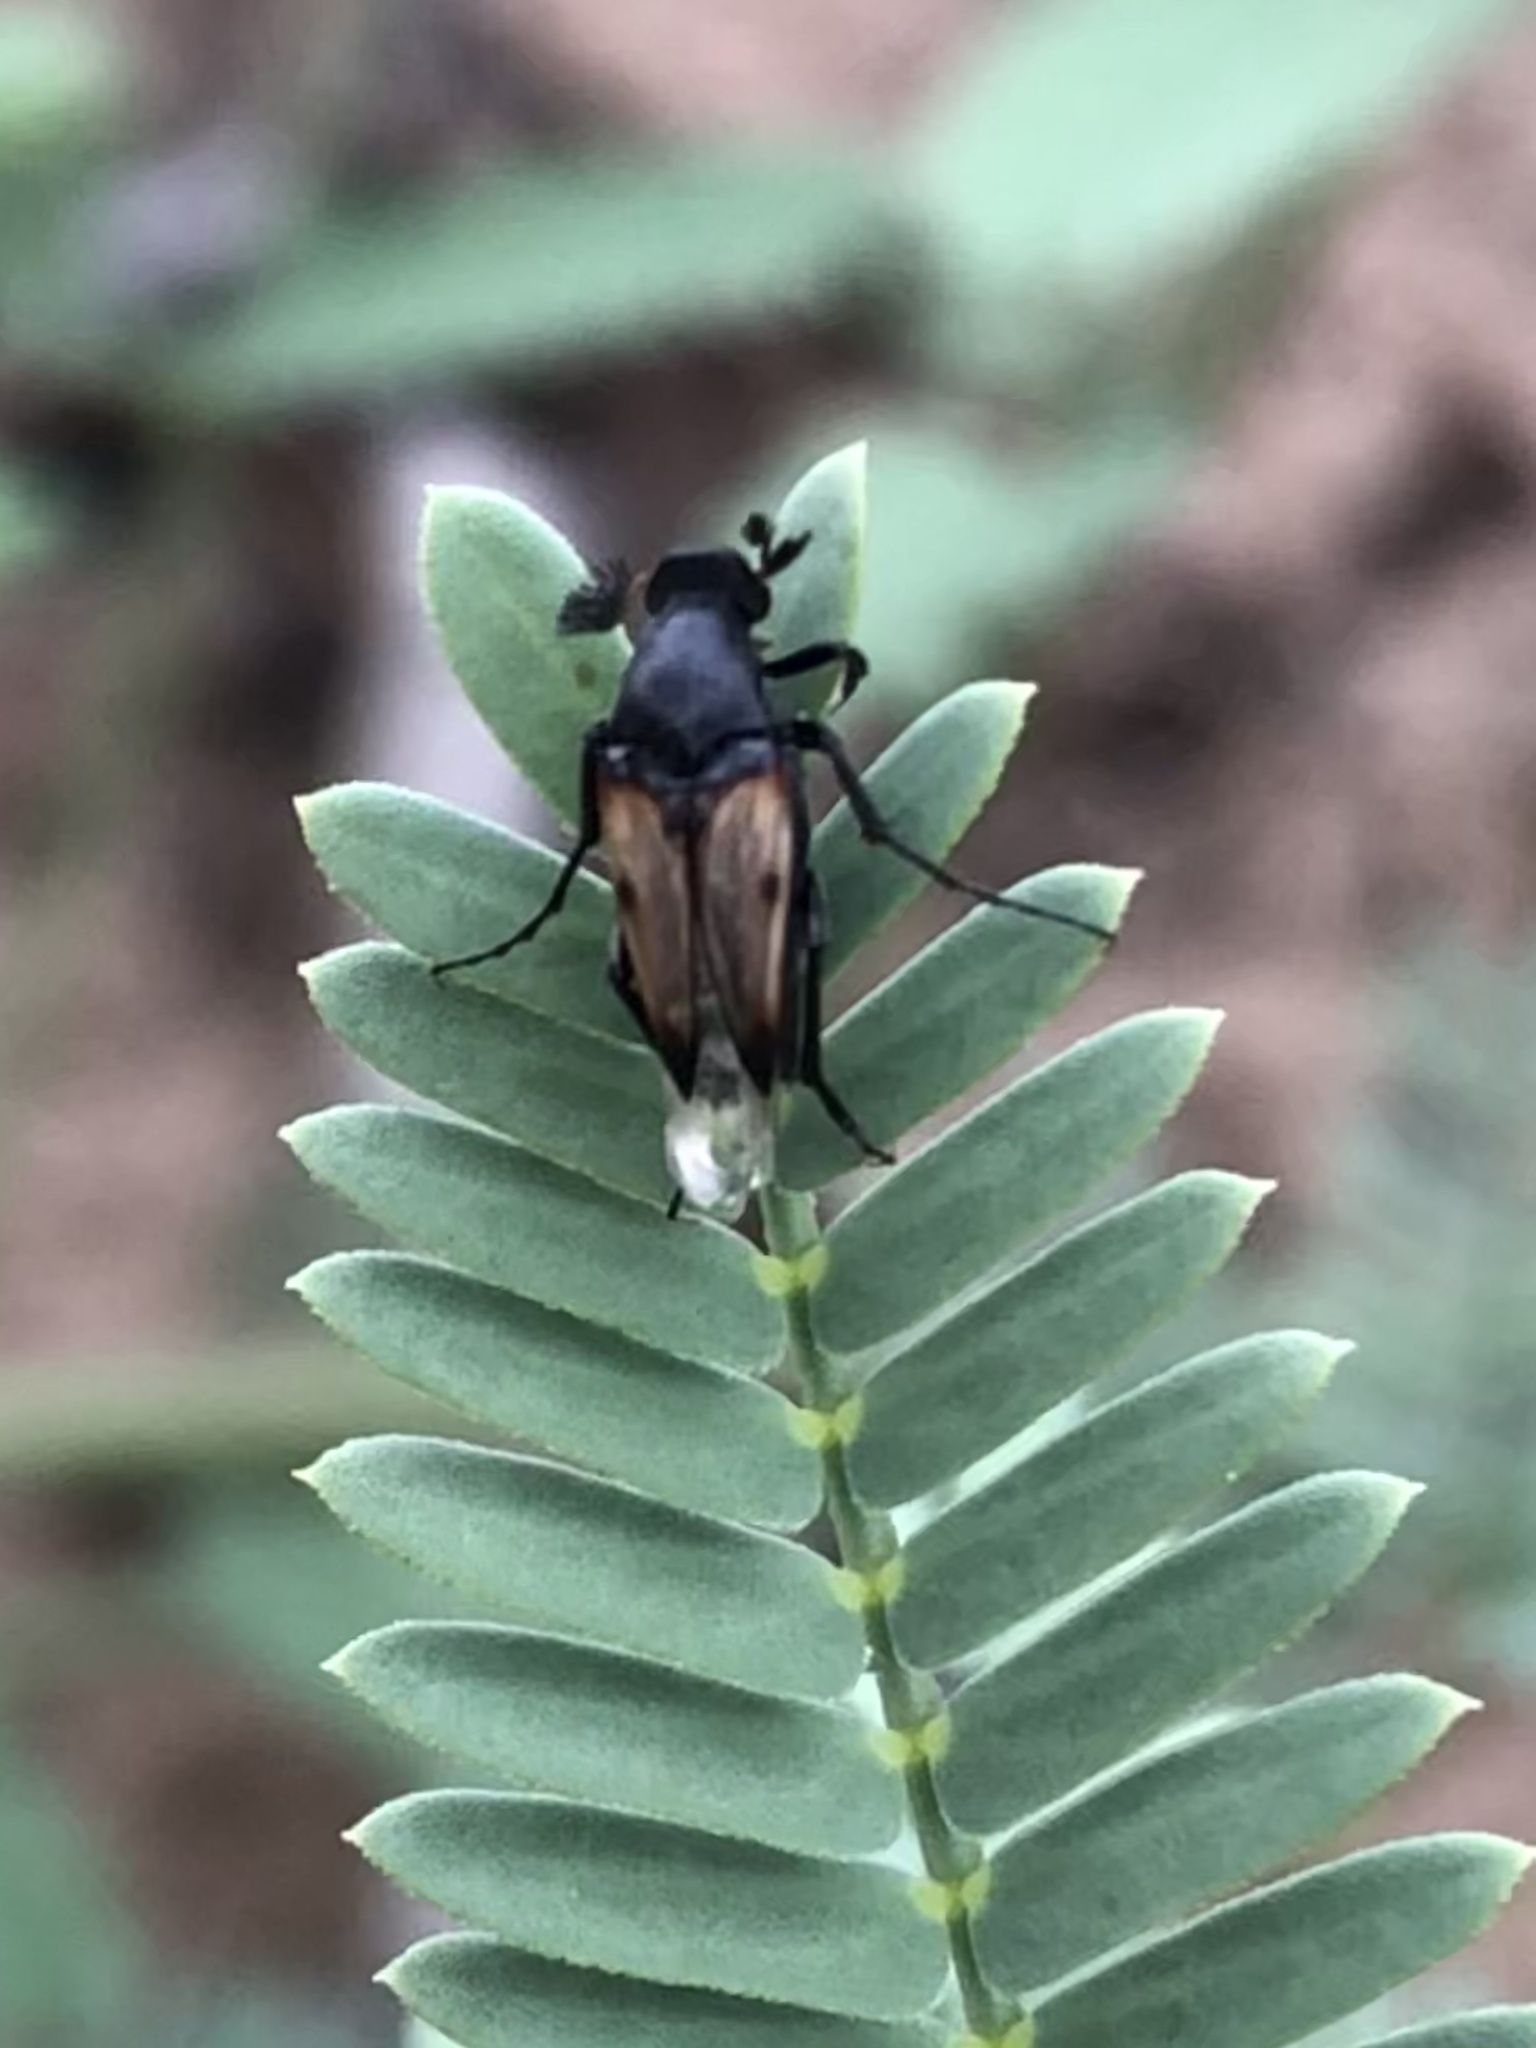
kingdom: Animalia
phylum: Arthropoda
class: Insecta
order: Coleoptera
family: Ripiphoridae
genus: Macrosiagon
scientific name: Macrosiagon pectinata
